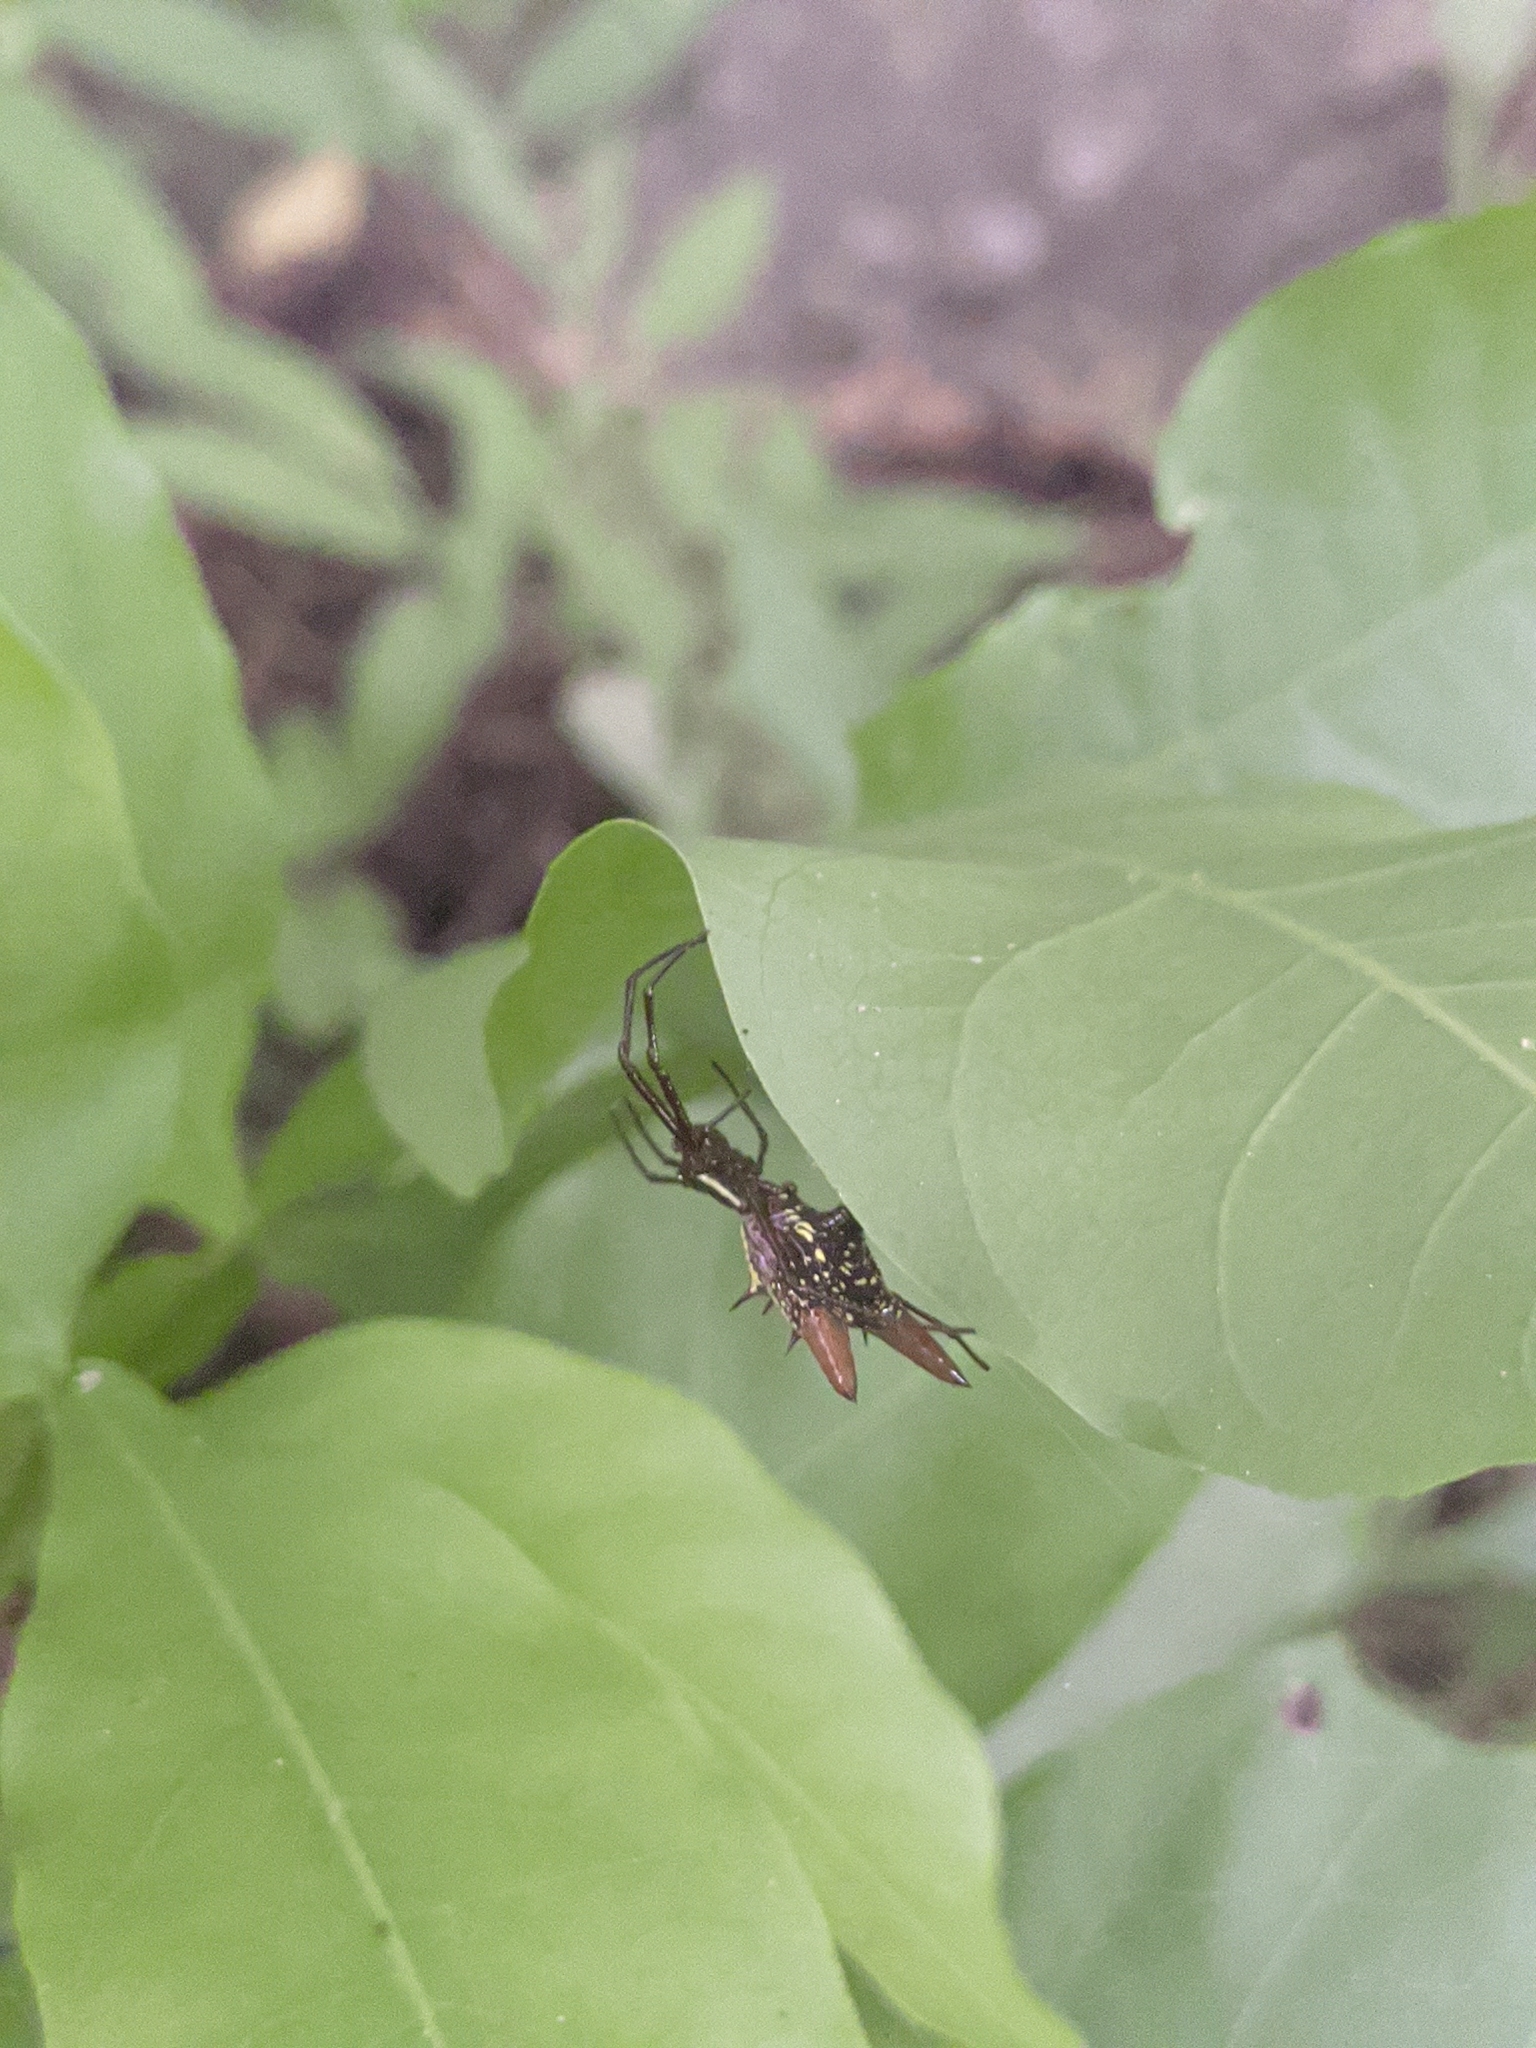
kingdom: Animalia
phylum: Arthropoda
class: Arachnida
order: Araneae
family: Araneidae
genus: Micrathena
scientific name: Micrathena sexspinosa
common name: Orb weavers
